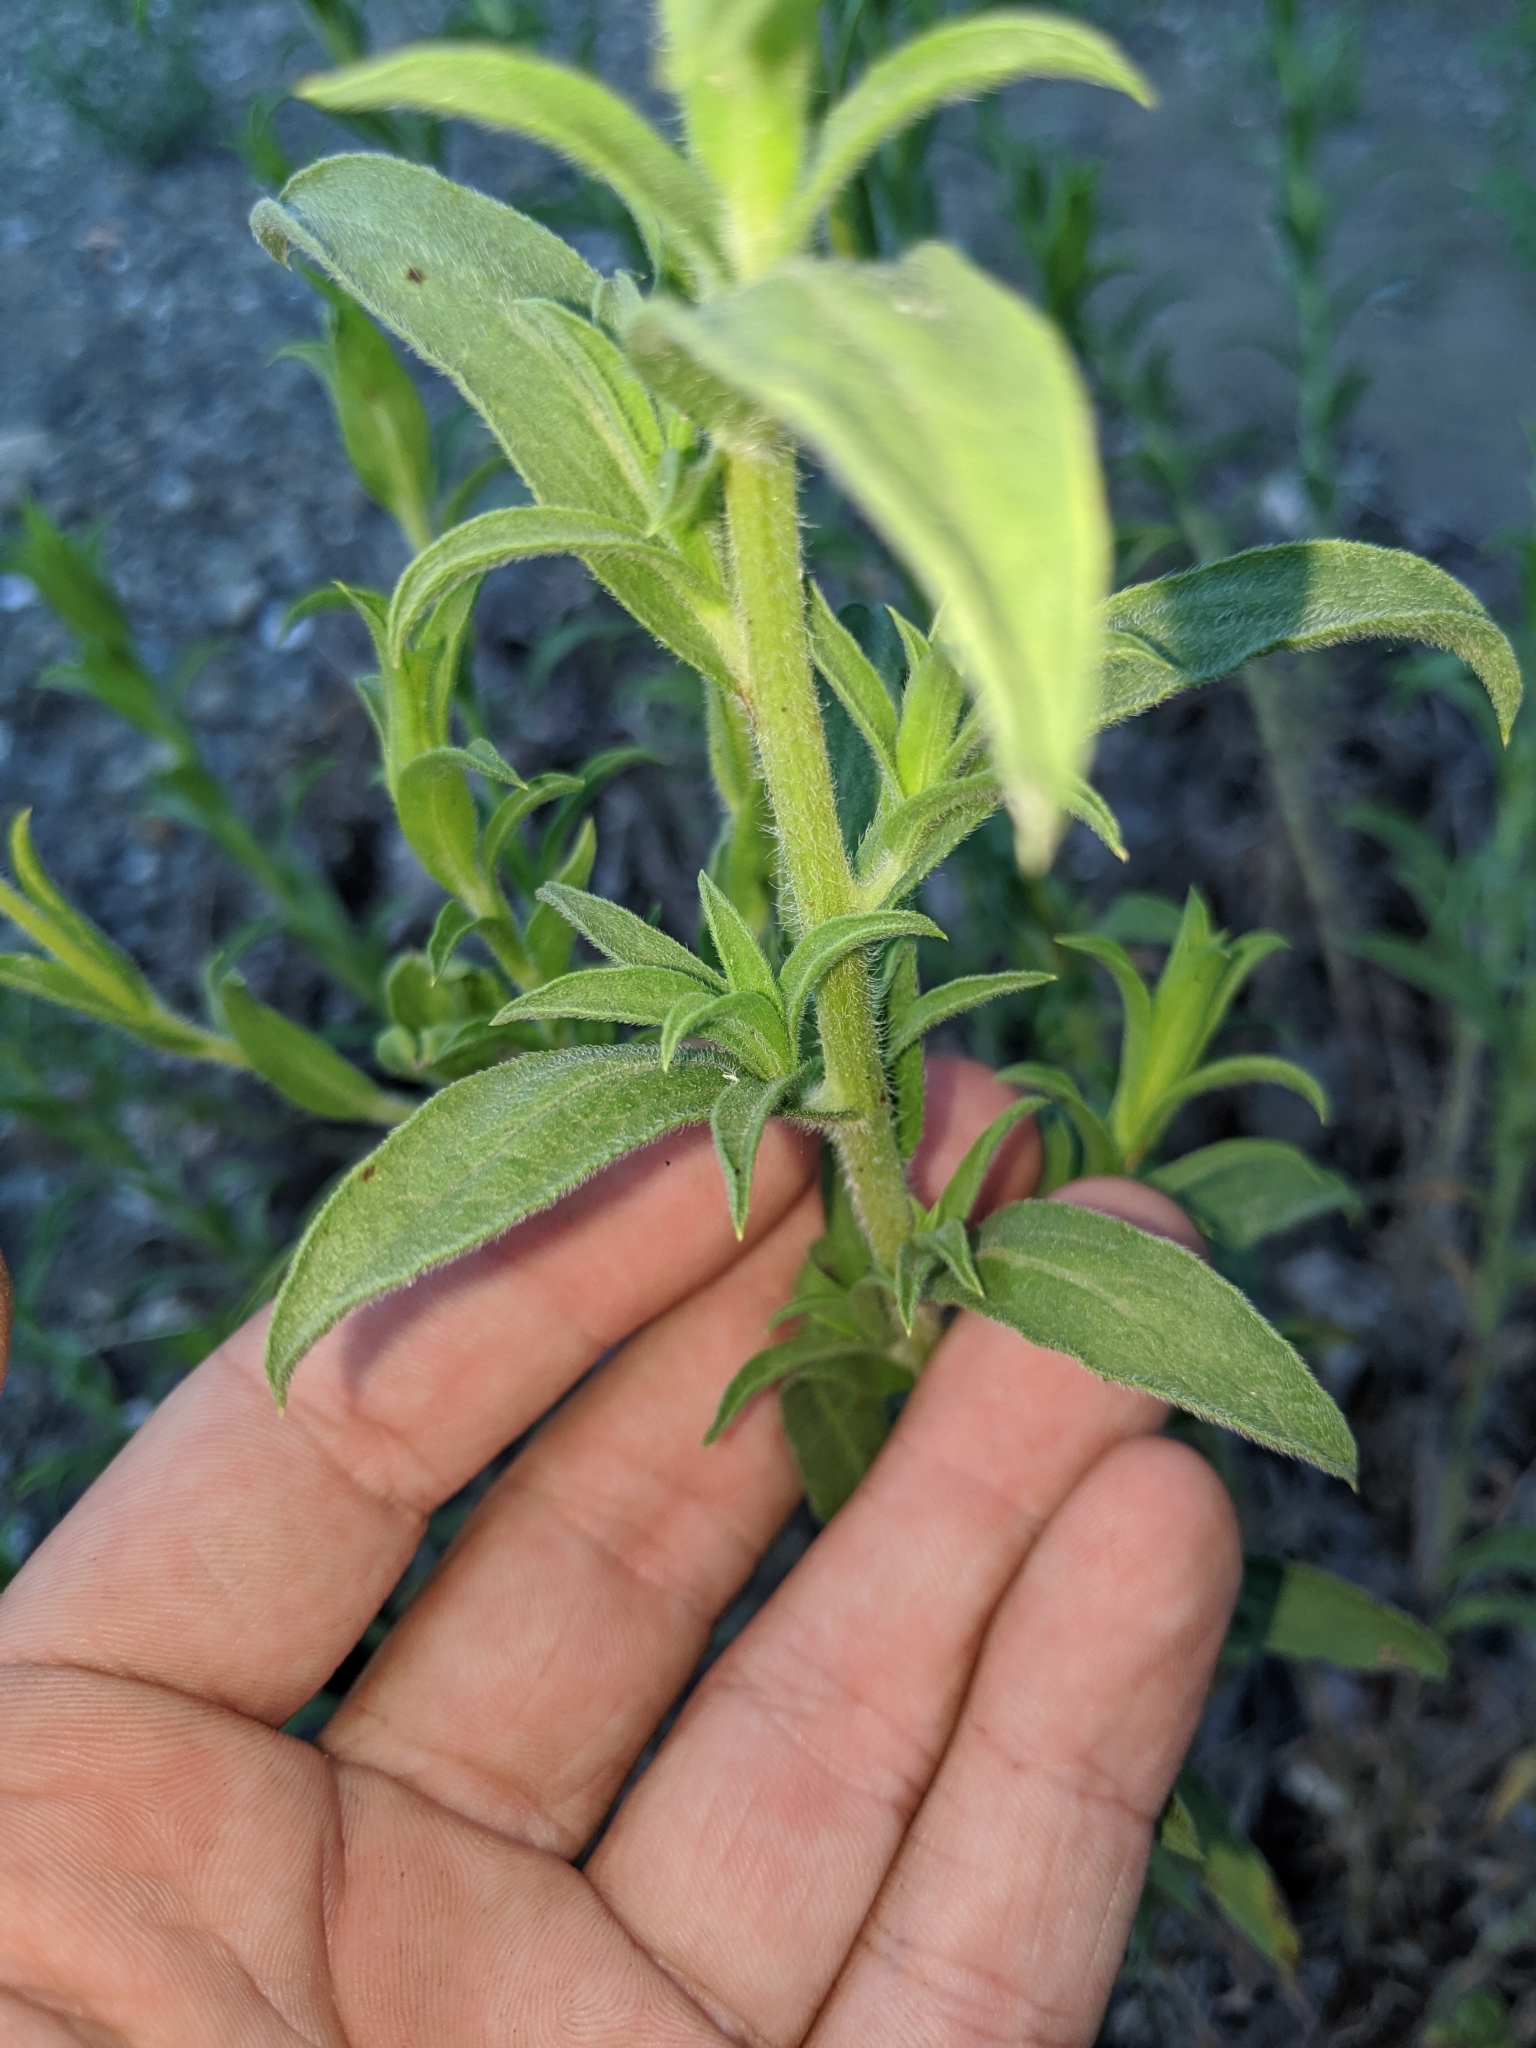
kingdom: Plantae
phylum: Tracheophyta
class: Magnoliopsida
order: Asterales
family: Asteraceae
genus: Heterotheca
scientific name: Heterotheca oregona
